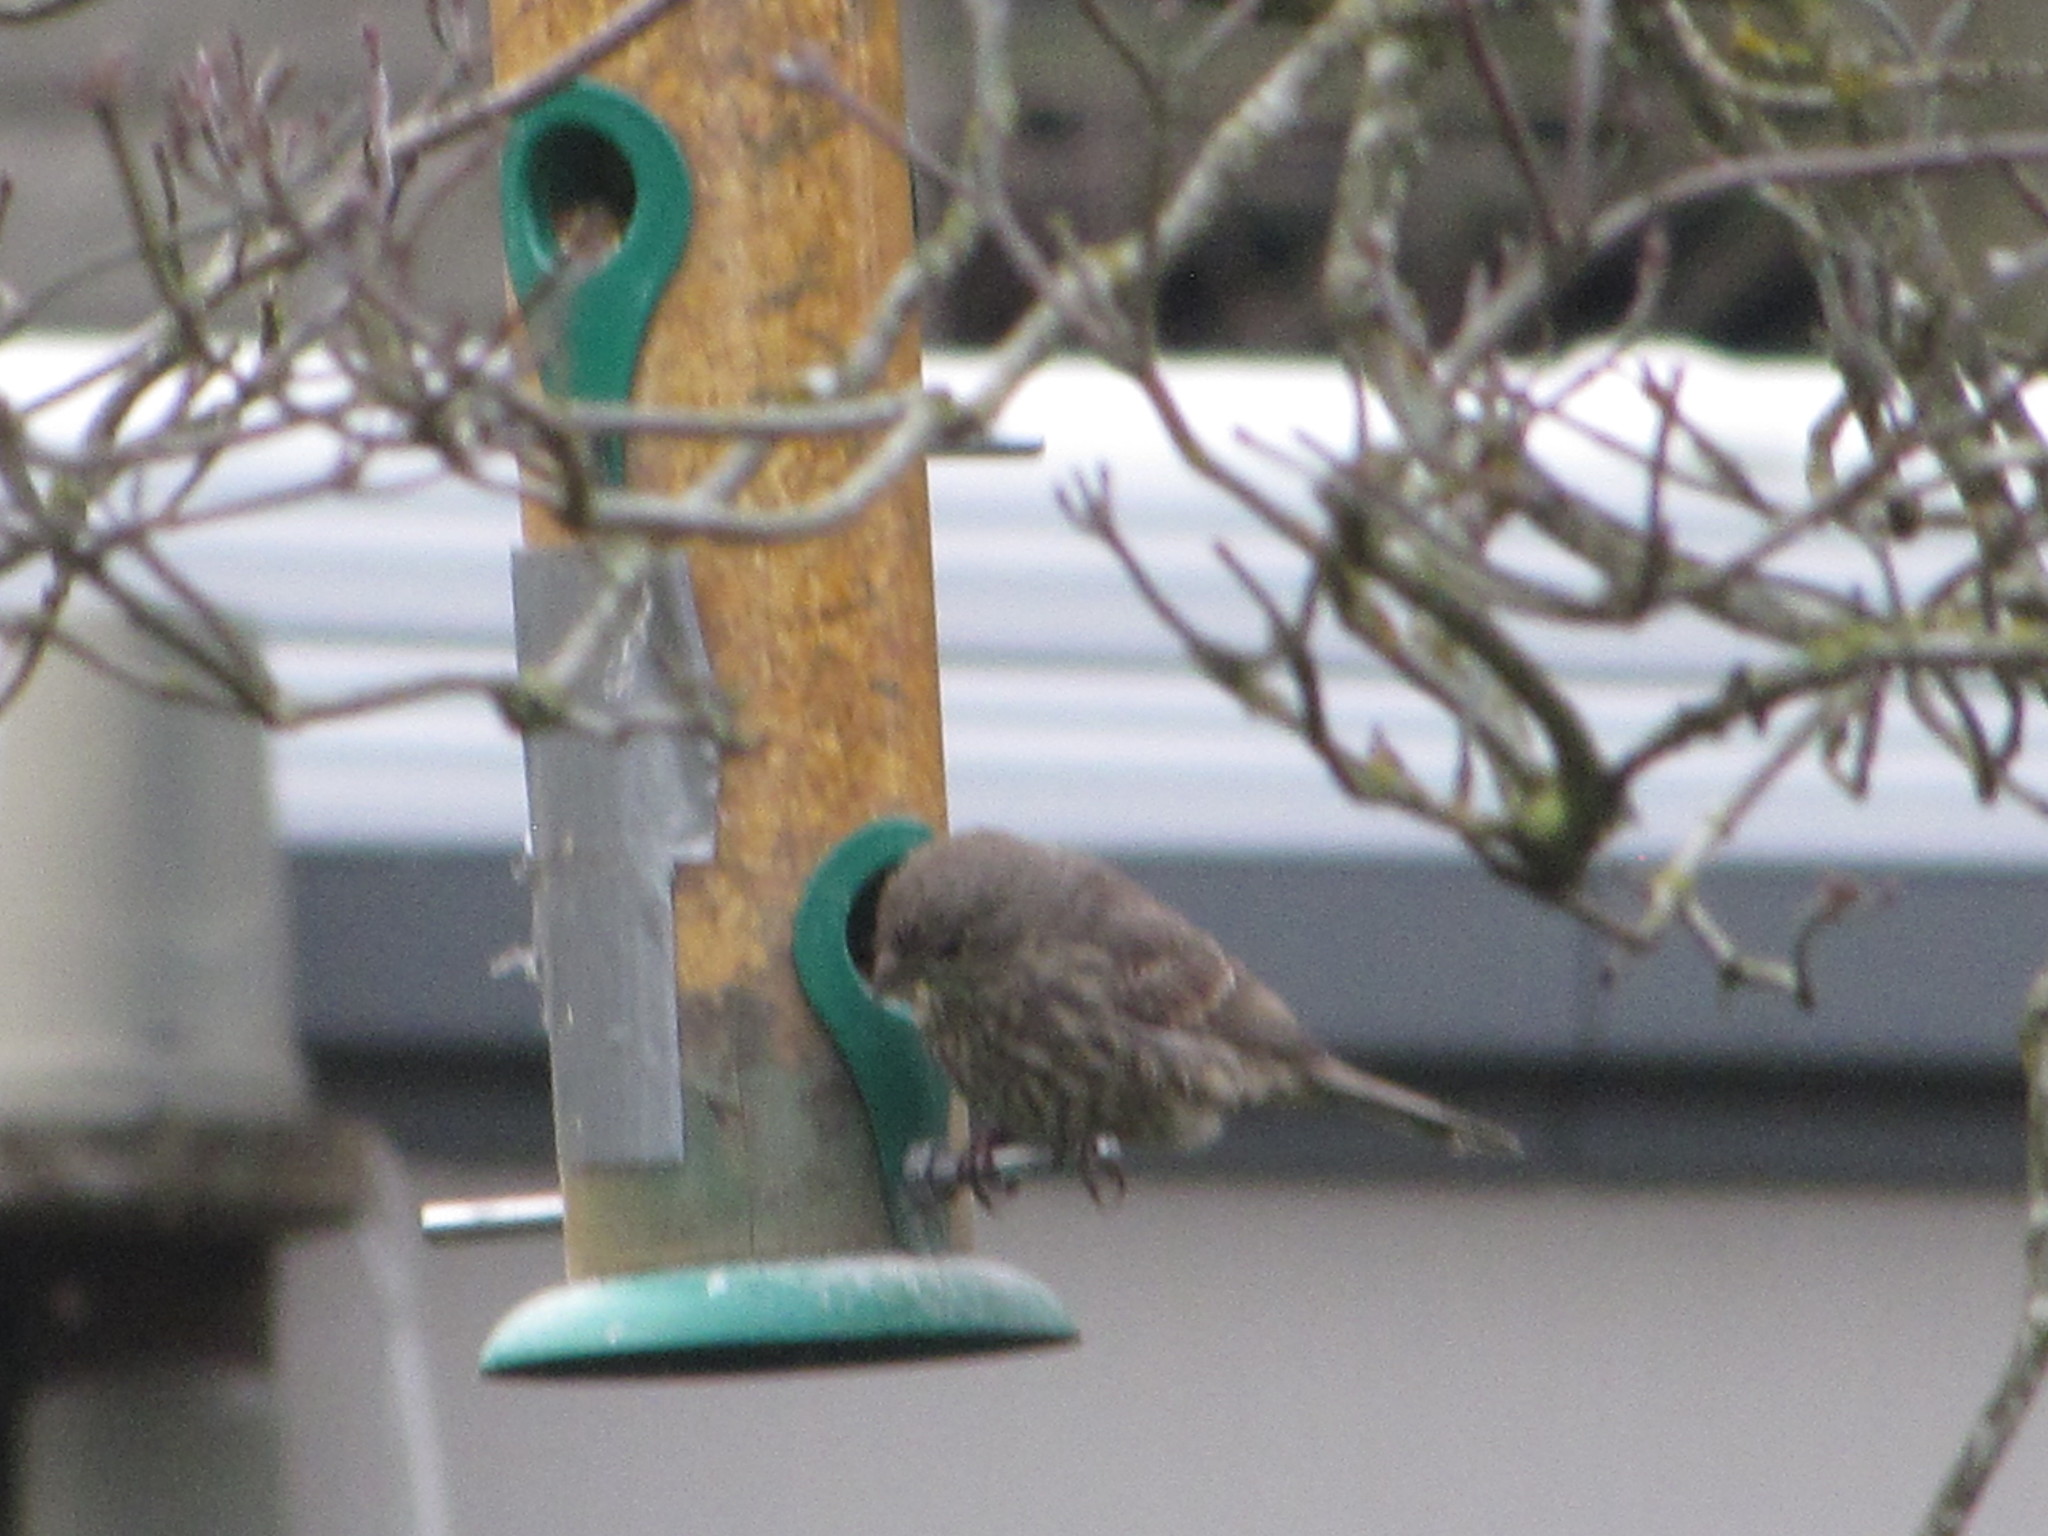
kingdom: Animalia
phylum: Chordata
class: Aves
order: Passeriformes
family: Fringillidae
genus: Haemorhous
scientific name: Haemorhous mexicanus
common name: House finch
